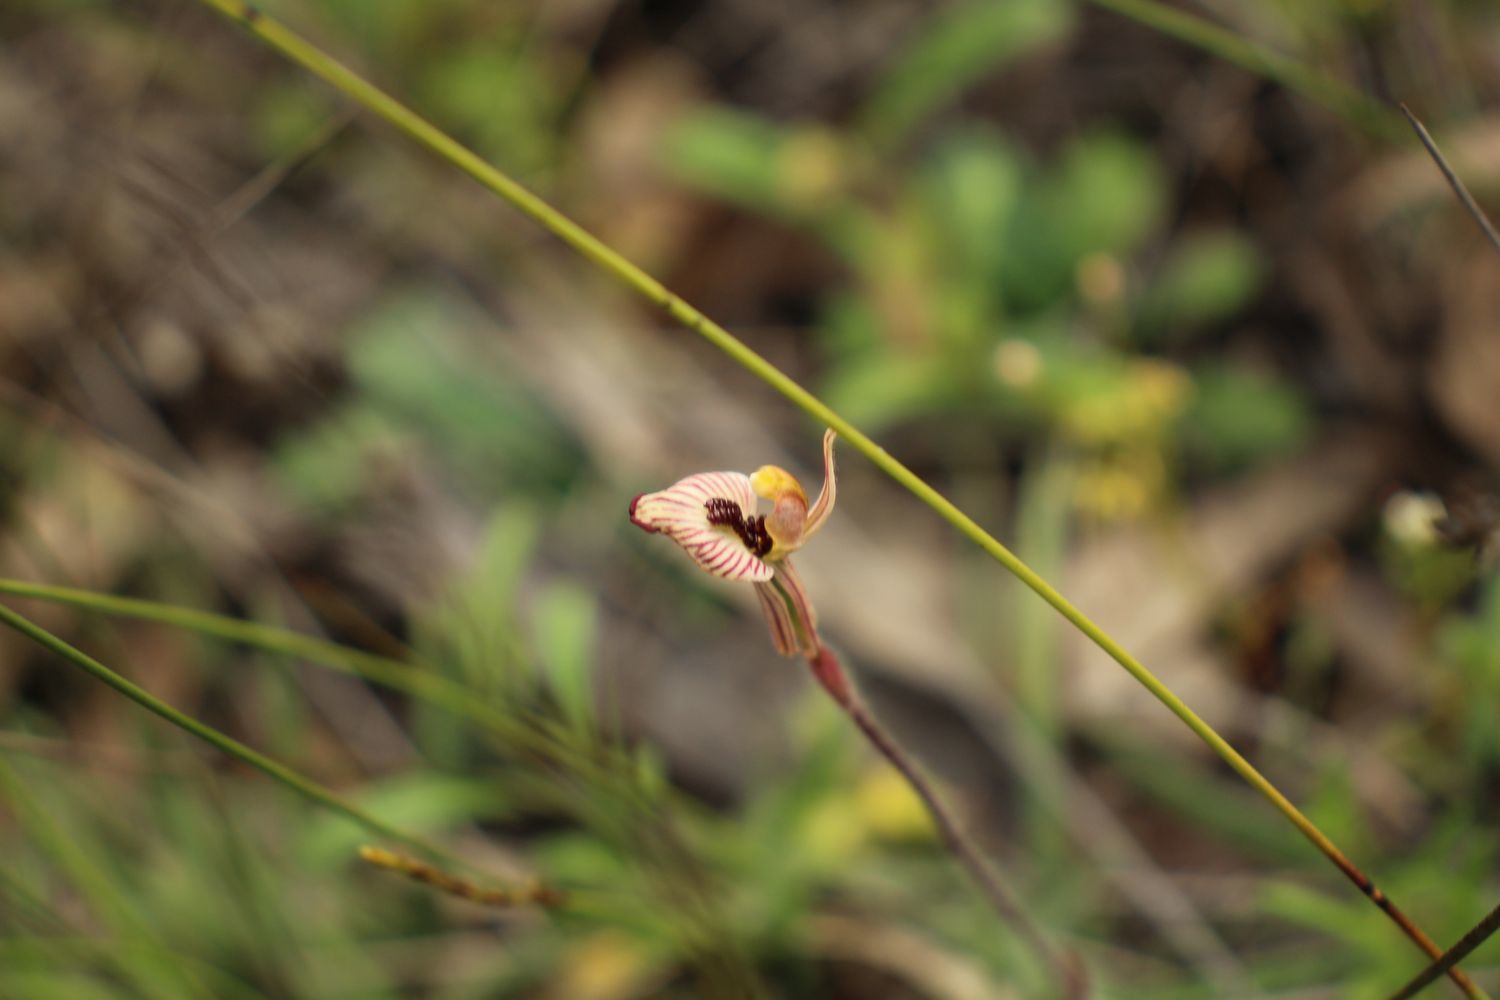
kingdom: Plantae
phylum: Tracheophyta
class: Liliopsida
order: Asparagales
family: Orchidaceae
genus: Caladenia
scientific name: Caladenia cairnsiana
